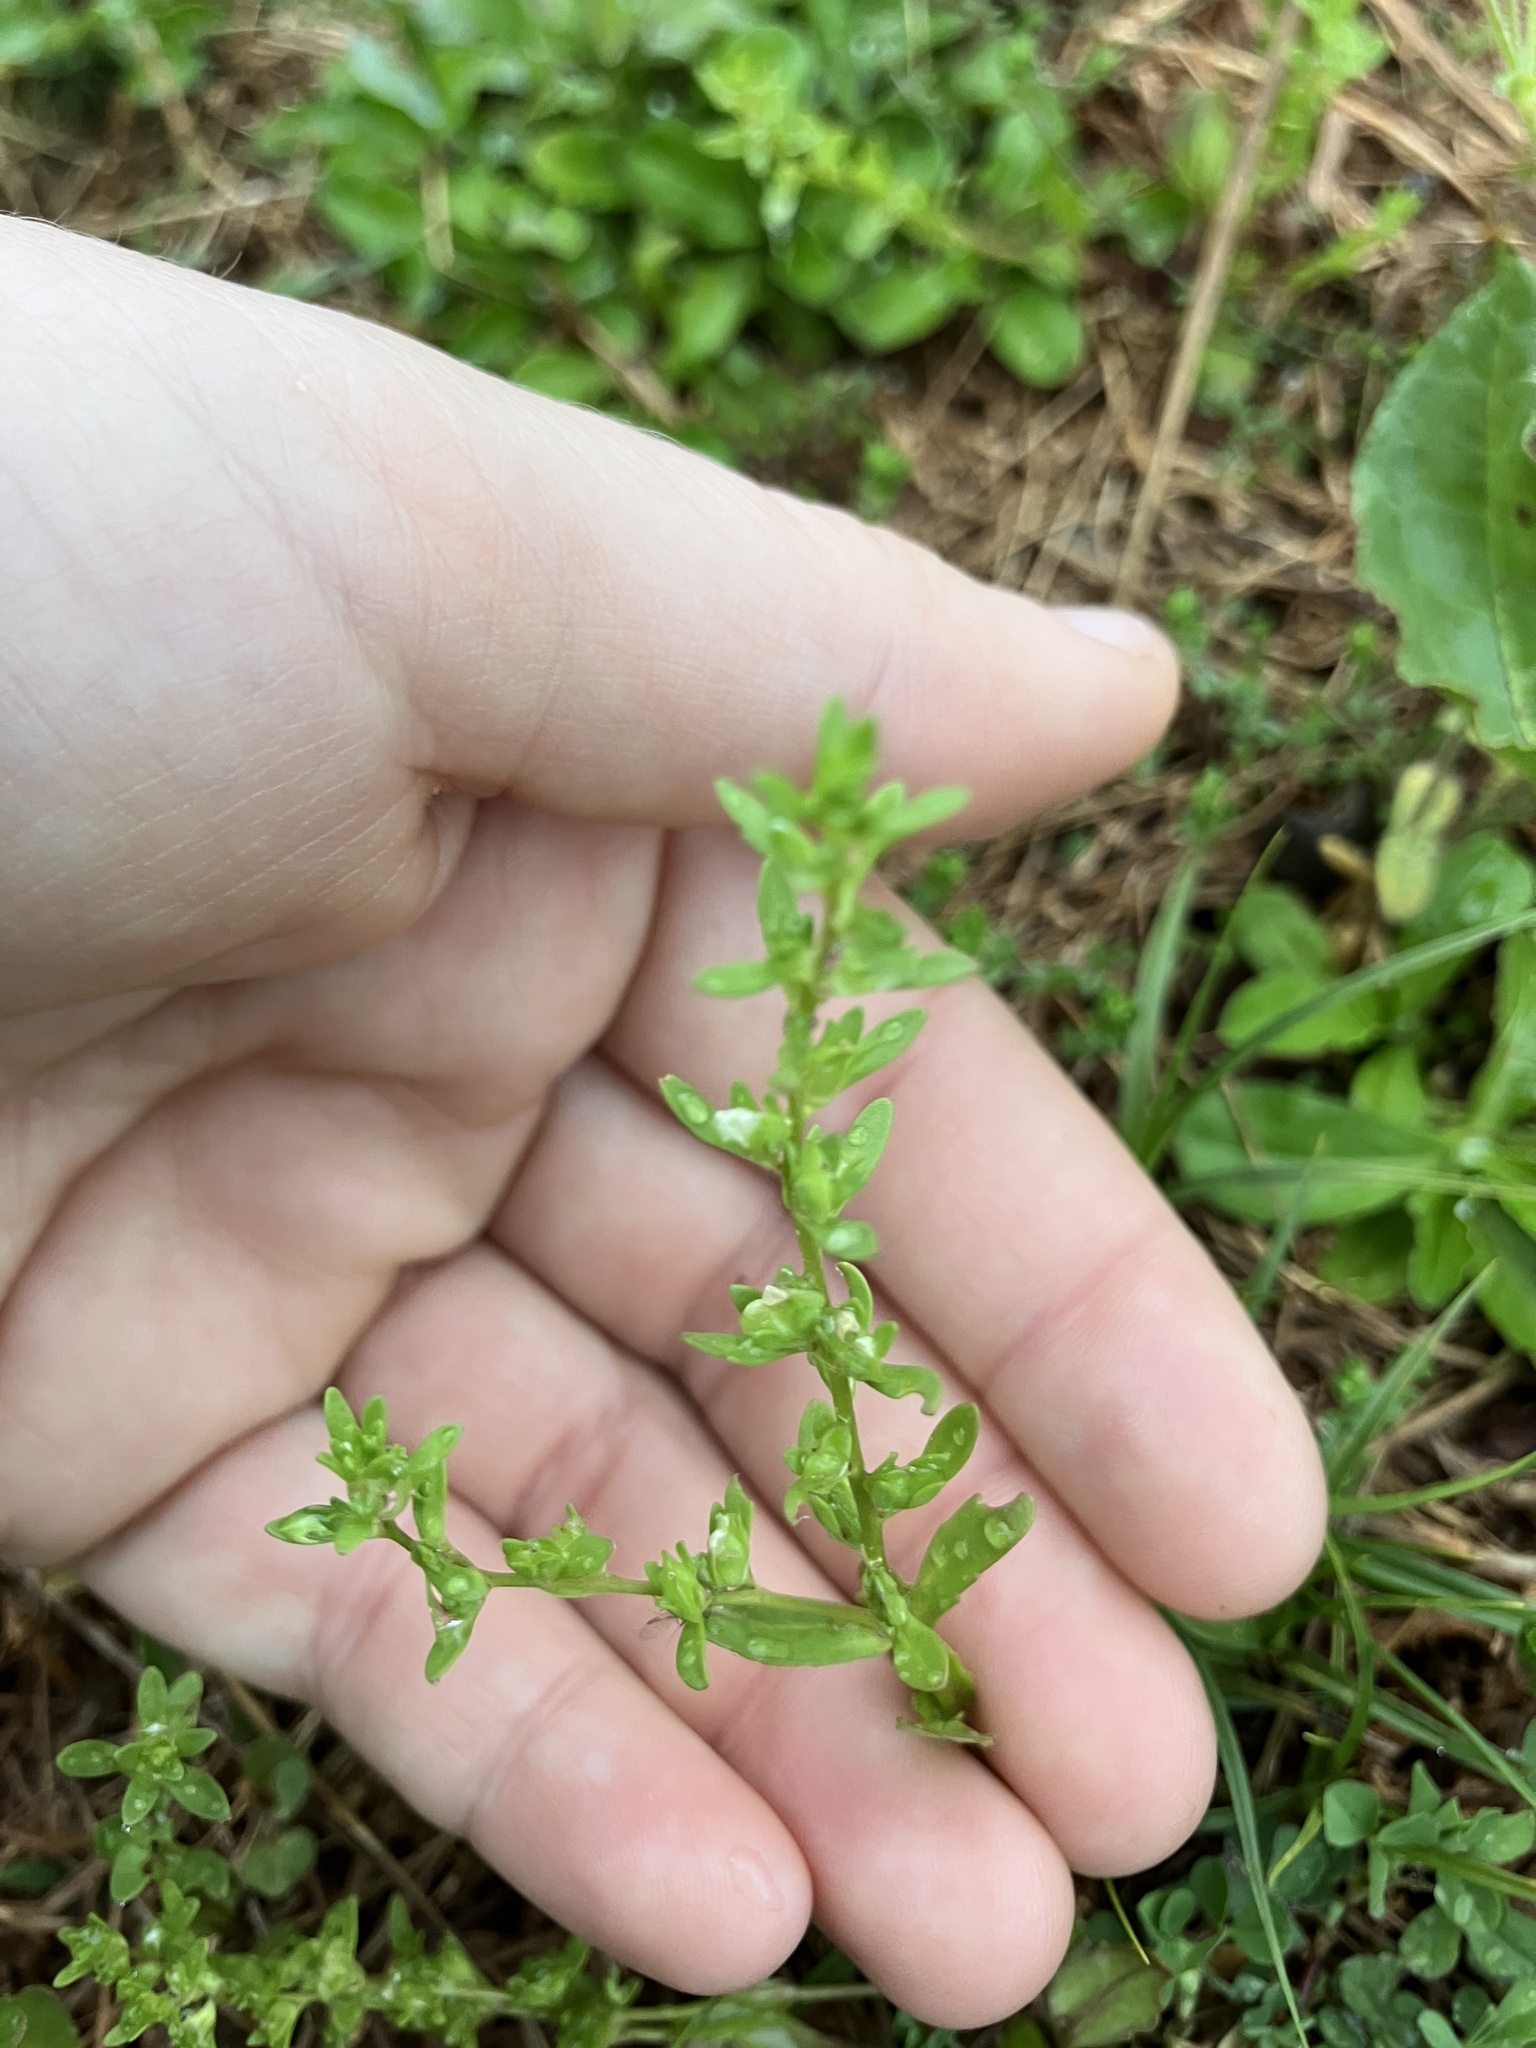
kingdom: Plantae
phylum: Tracheophyta
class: Magnoliopsida
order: Lamiales
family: Plantaginaceae
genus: Veronica
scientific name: Veronica peregrina
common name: Neckweed
